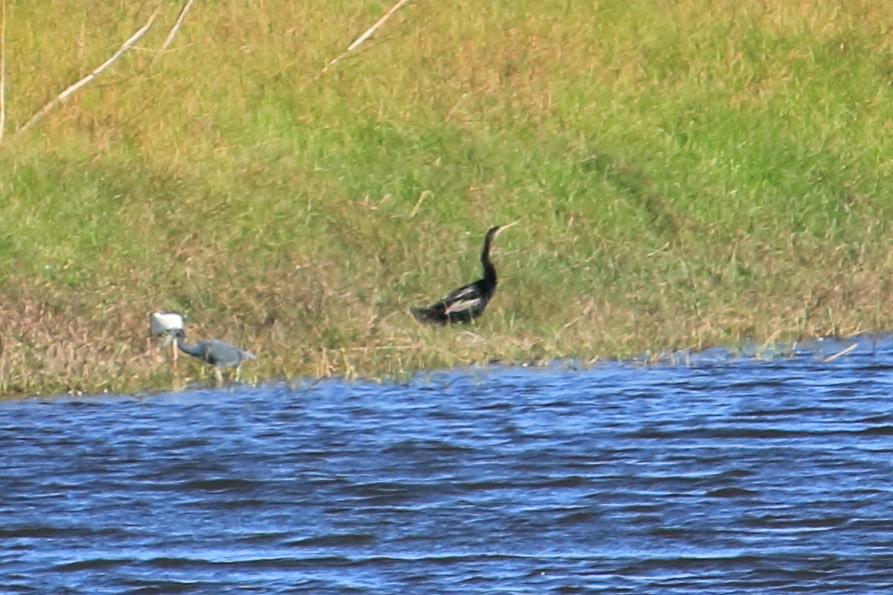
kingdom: Animalia
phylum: Chordata
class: Aves
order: Suliformes
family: Anhingidae
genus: Anhinga
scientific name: Anhinga anhinga
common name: Anhinga
